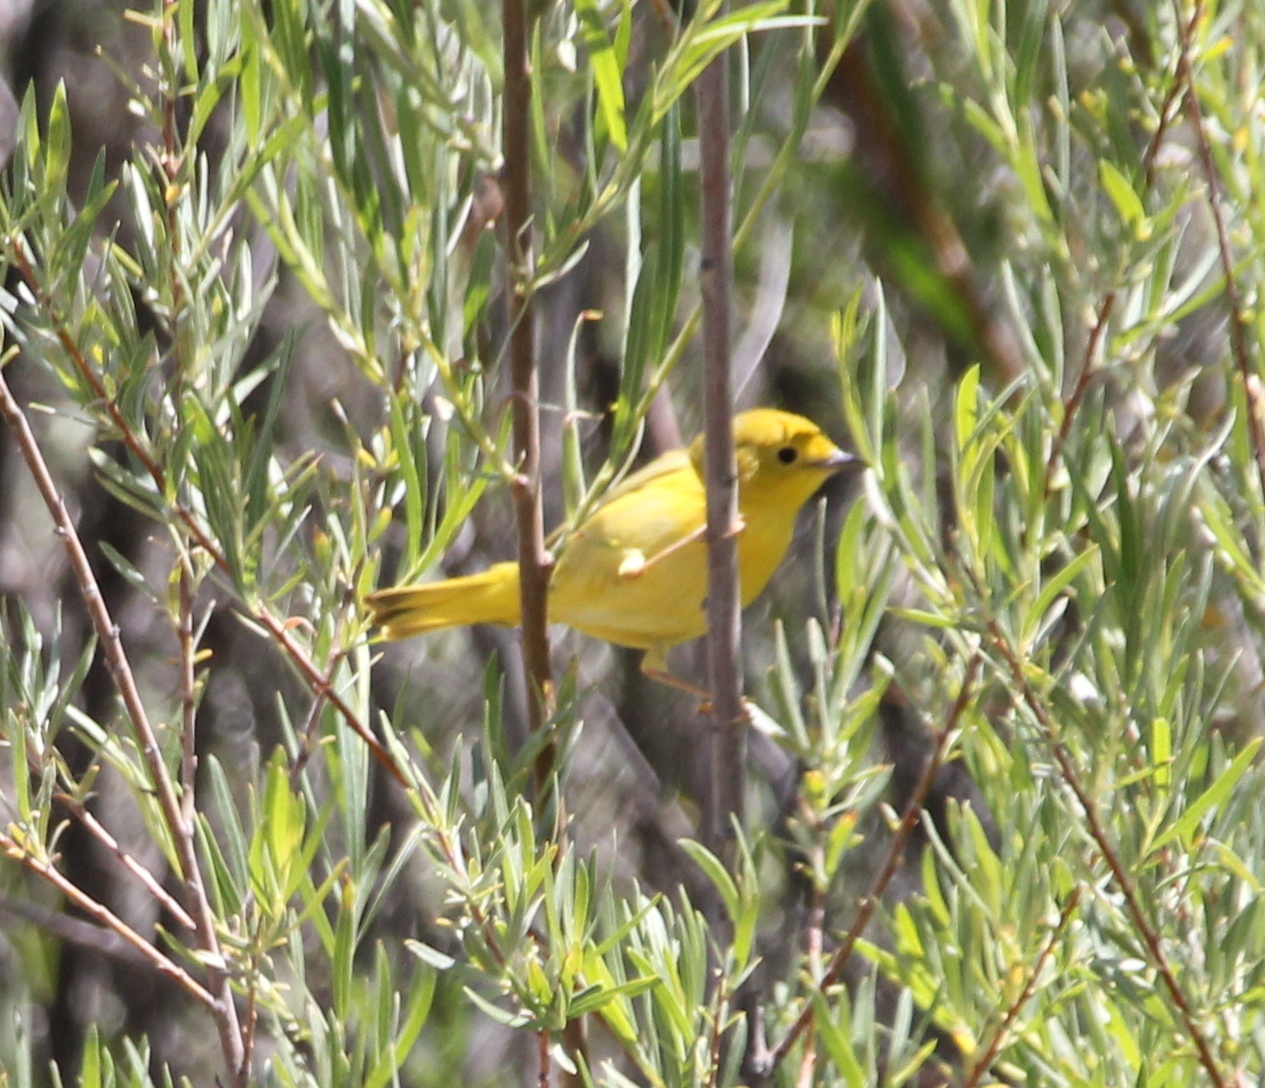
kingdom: Animalia
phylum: Chordata
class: Aves
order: Passeriformes
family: Parulidae
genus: Setophaga
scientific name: Setophaga petechia
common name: Yellow warbler
